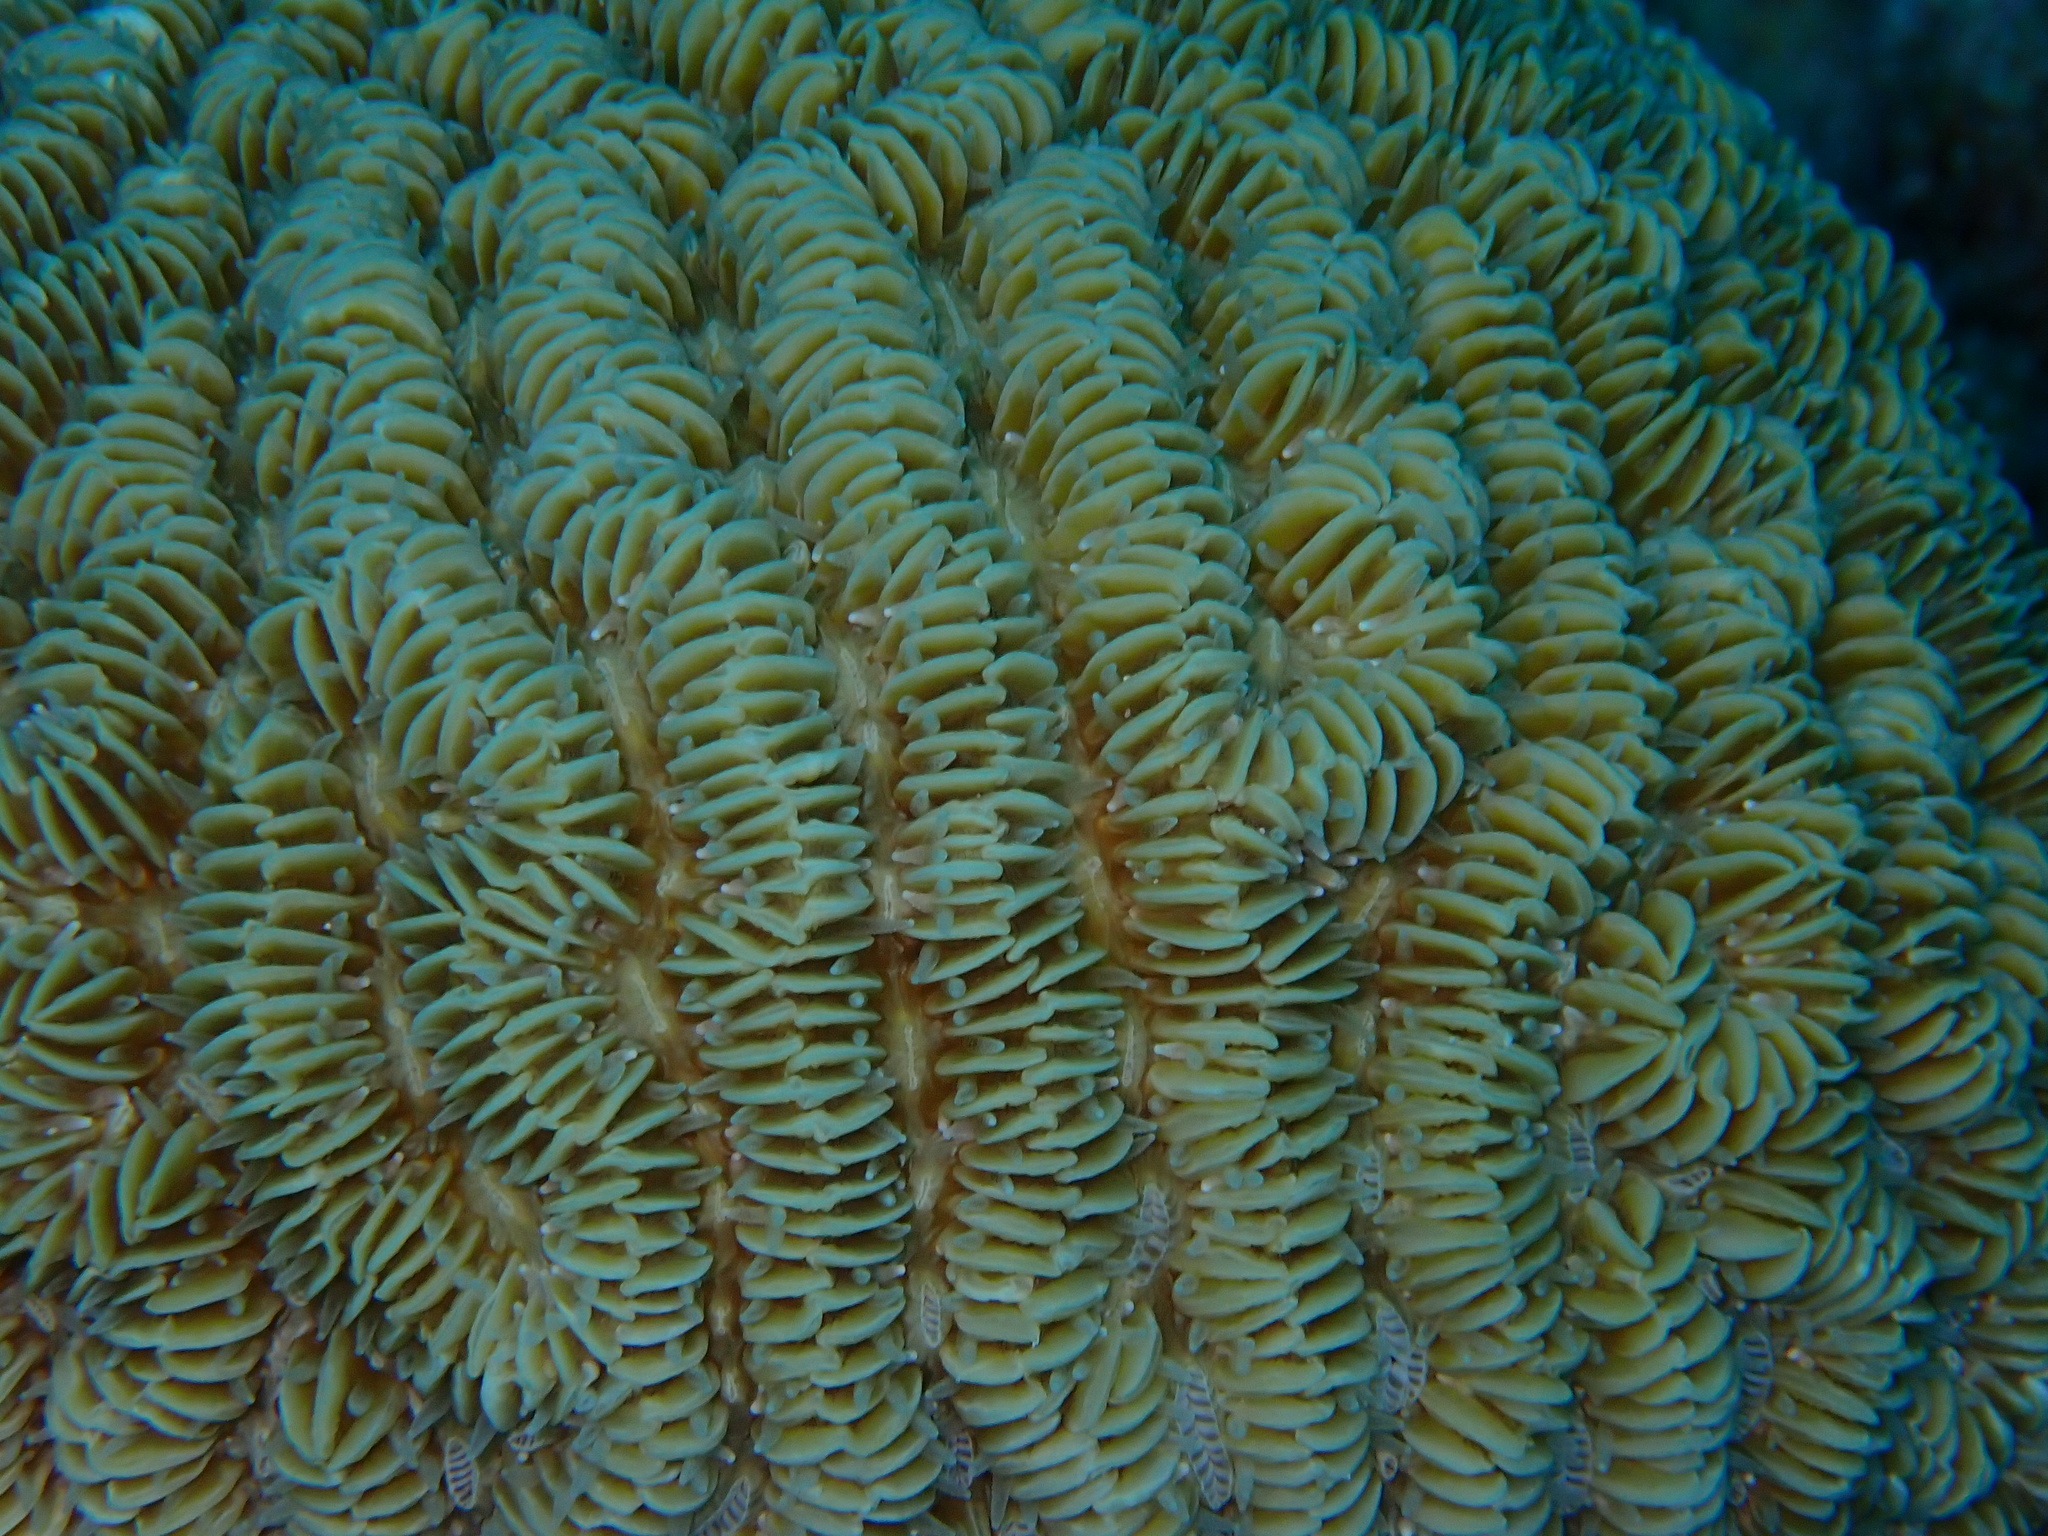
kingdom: Animalia
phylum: Cnidaria
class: Anthozoa
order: Scleractinia
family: Meandrinidae
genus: Meandrina
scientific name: Meandrina meandrites
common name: Maze coral
